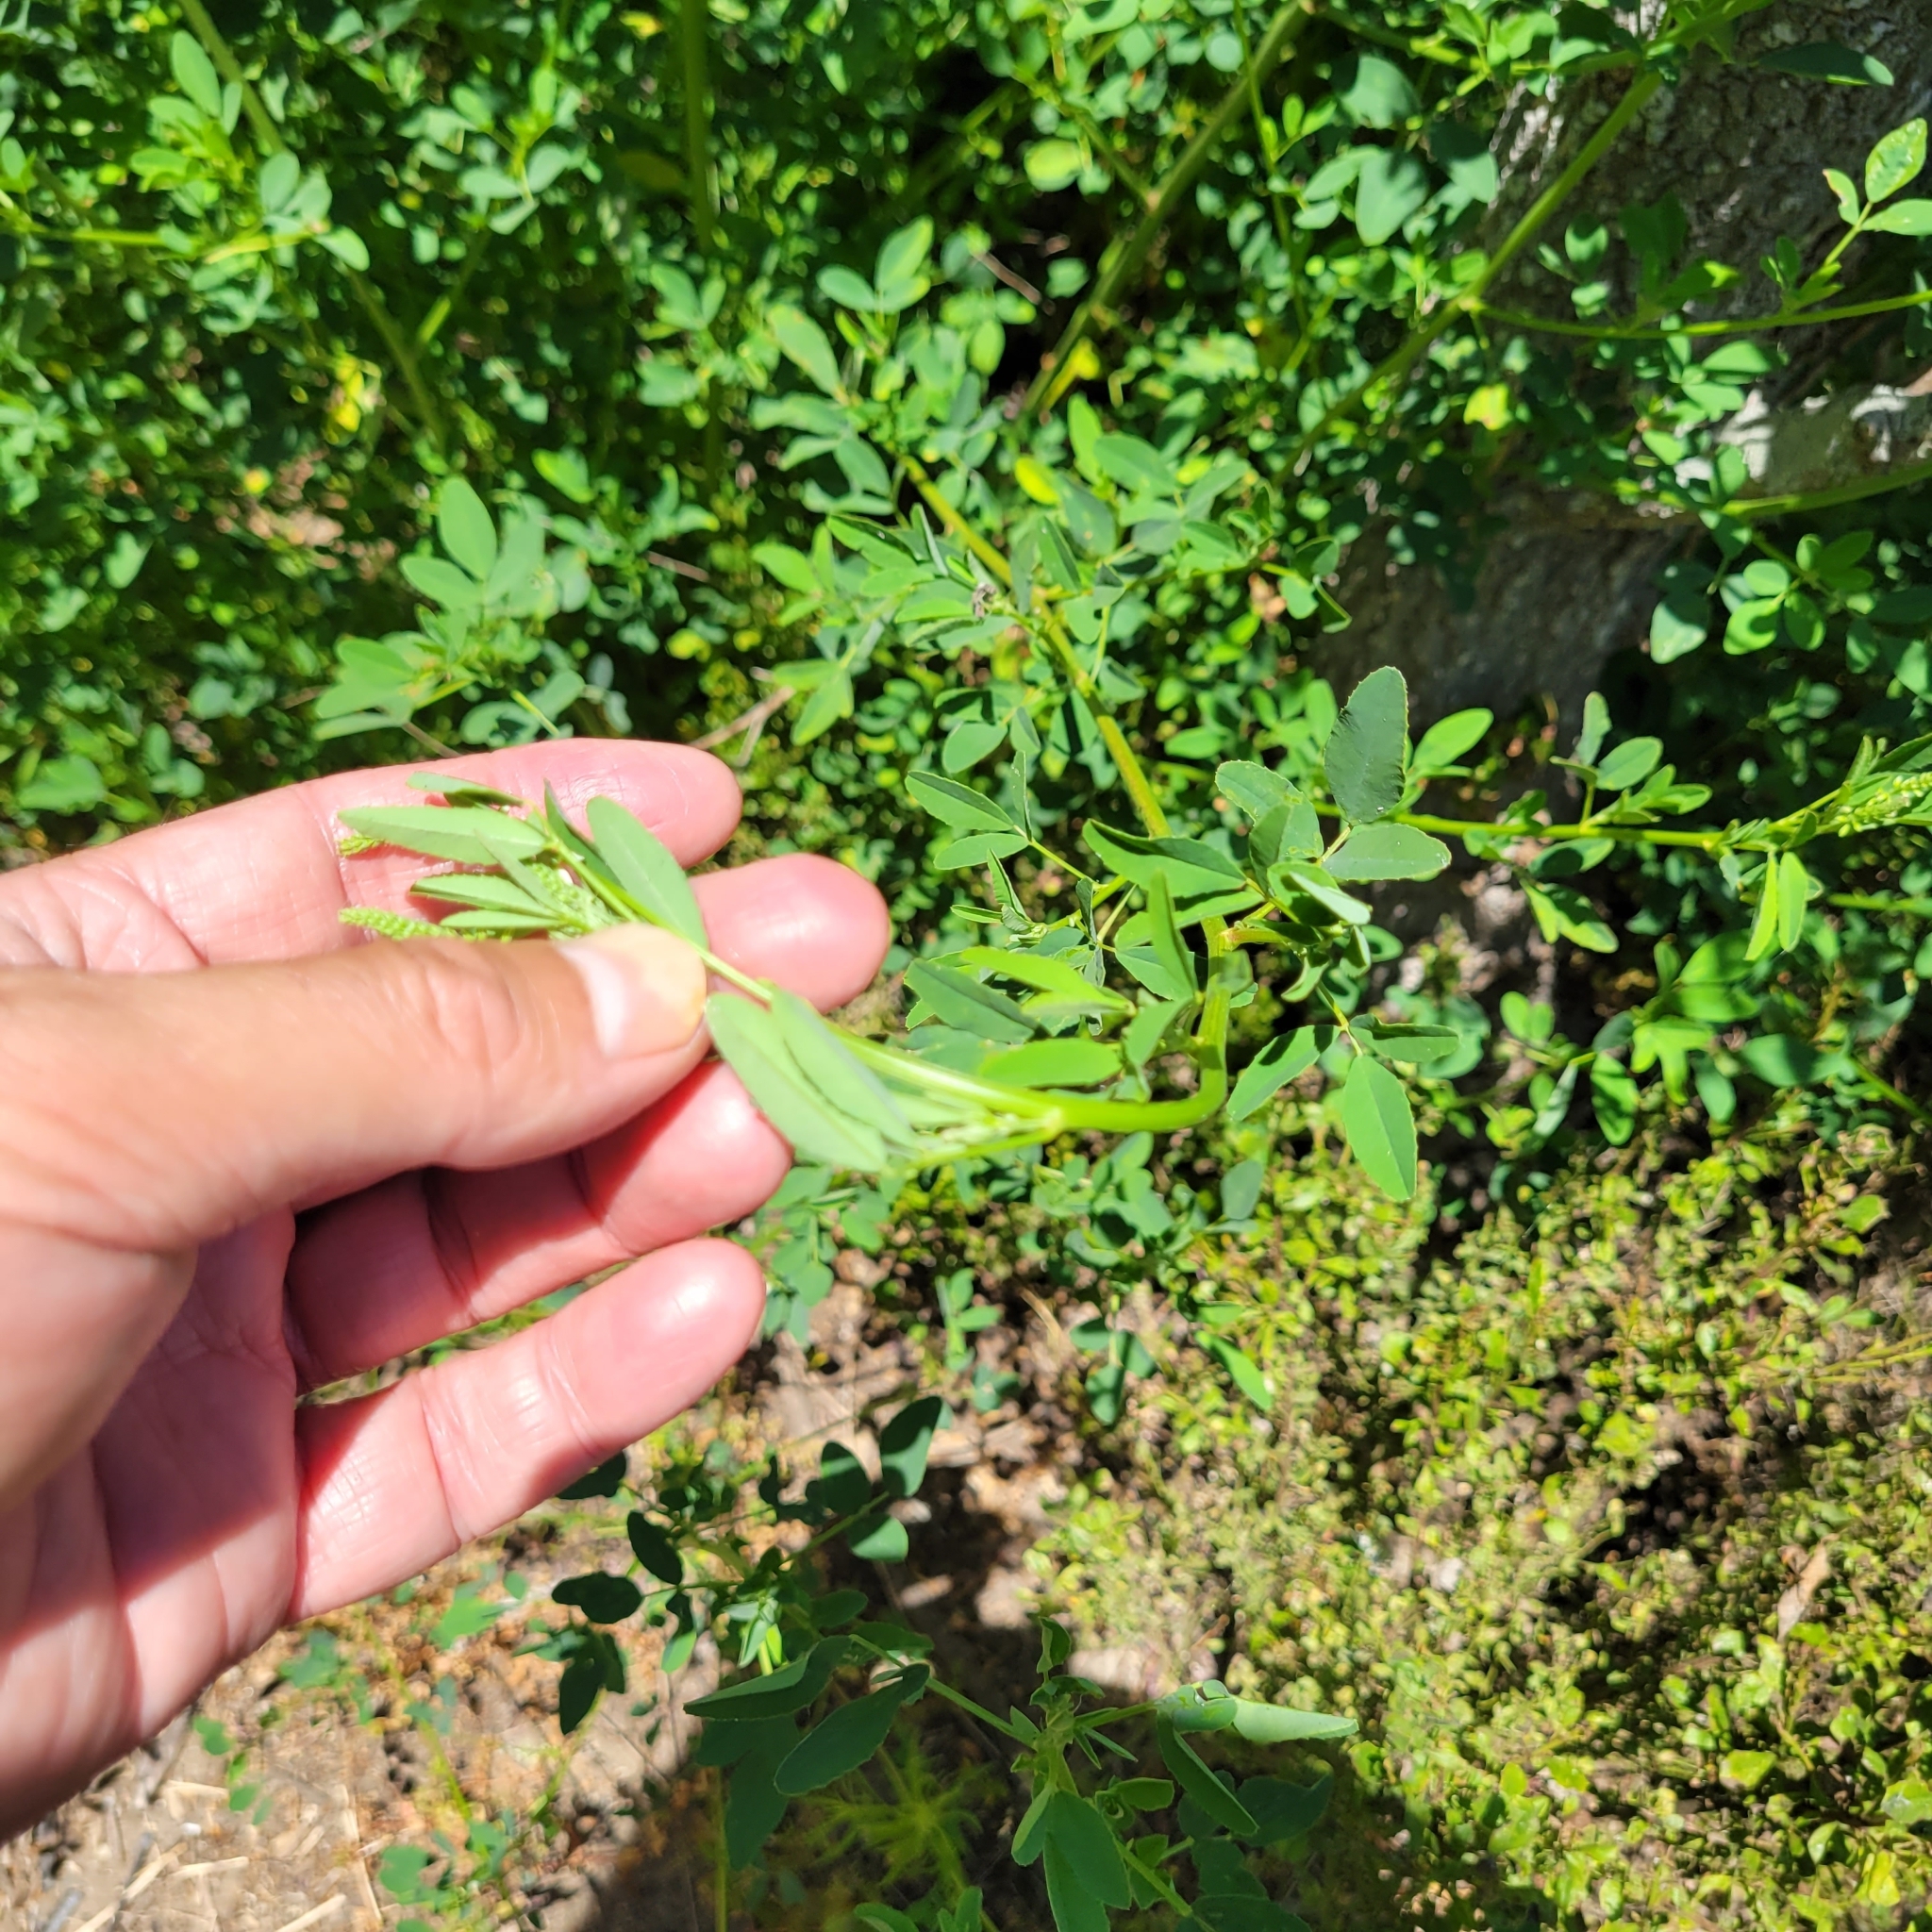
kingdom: Plantae
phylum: Tracheophyta
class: Magnoliopsida
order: Fabales
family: Fabaceae
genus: Melilotus
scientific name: Melilotus albus
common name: White melilot
